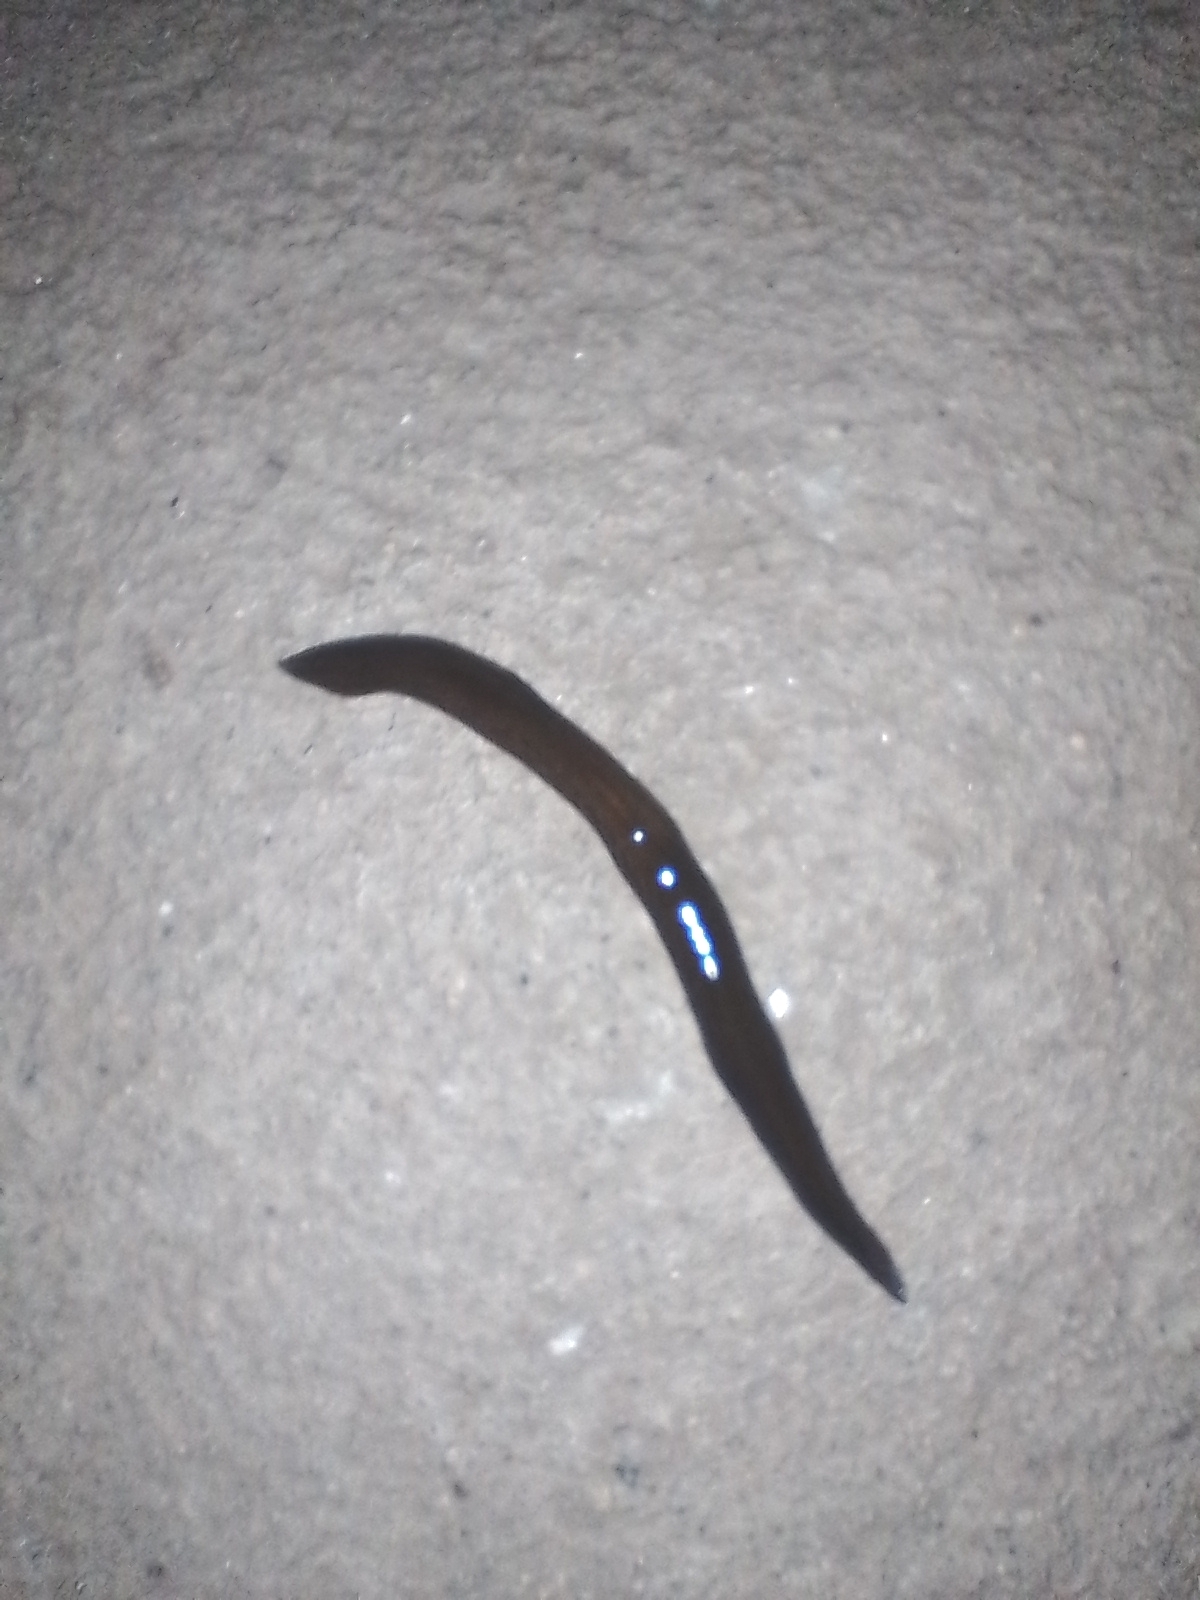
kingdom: Animalia
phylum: Platyhelminthes
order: Tricladida
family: Geoplanidae
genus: Obama
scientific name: Obama nungara
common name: Obama flatworm
